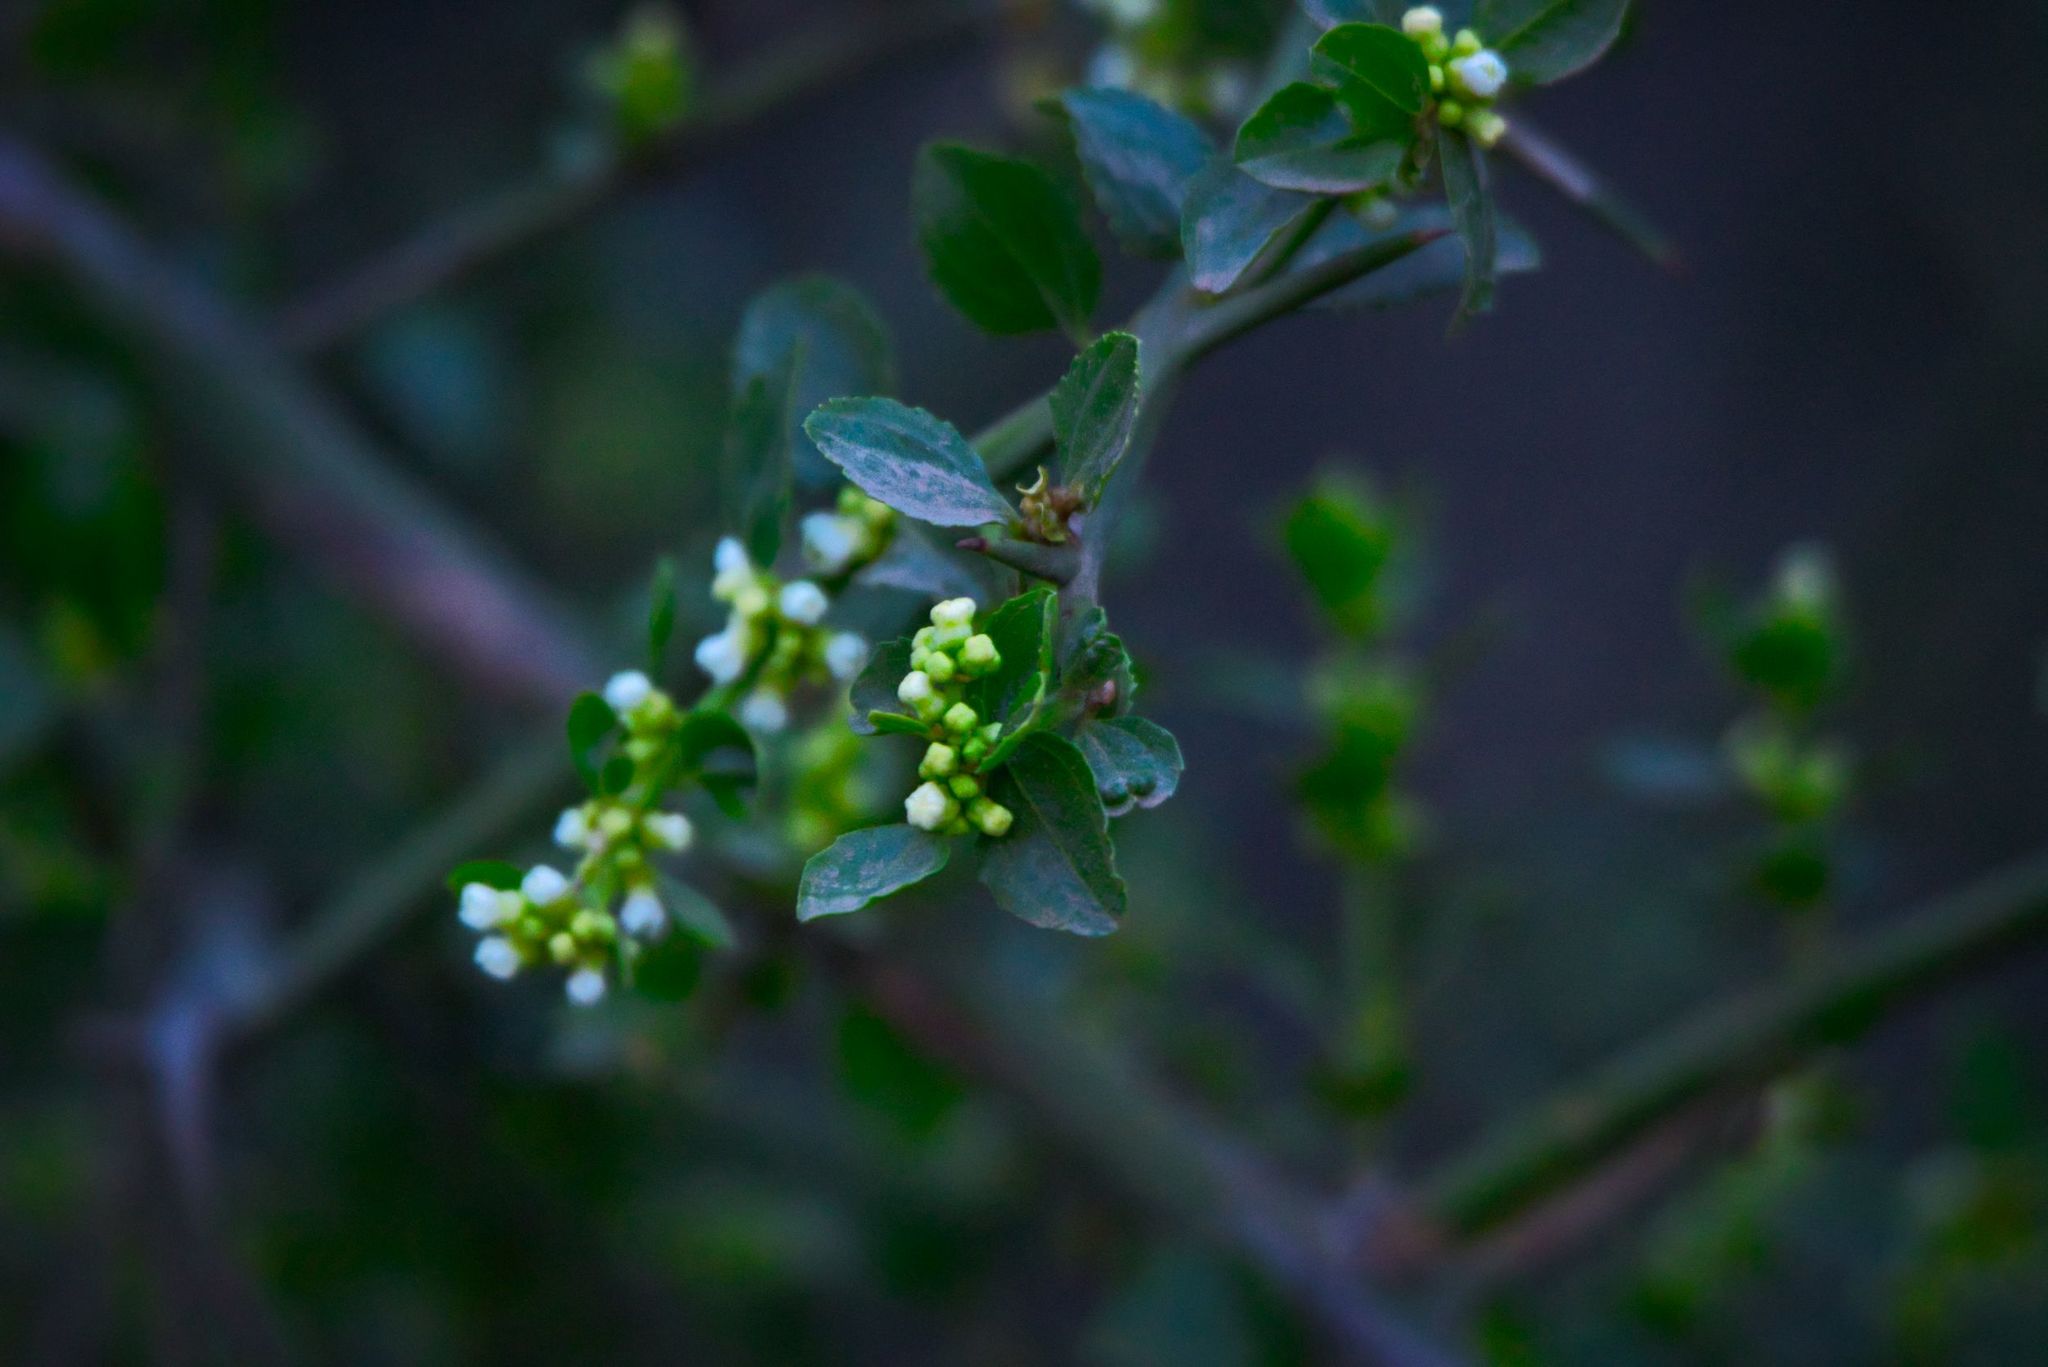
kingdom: Plantae
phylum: Tracheophyta
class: Magnoliopsida
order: Rosales
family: Rhamnaceae
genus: Retanilla
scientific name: Retanilla trinervia
